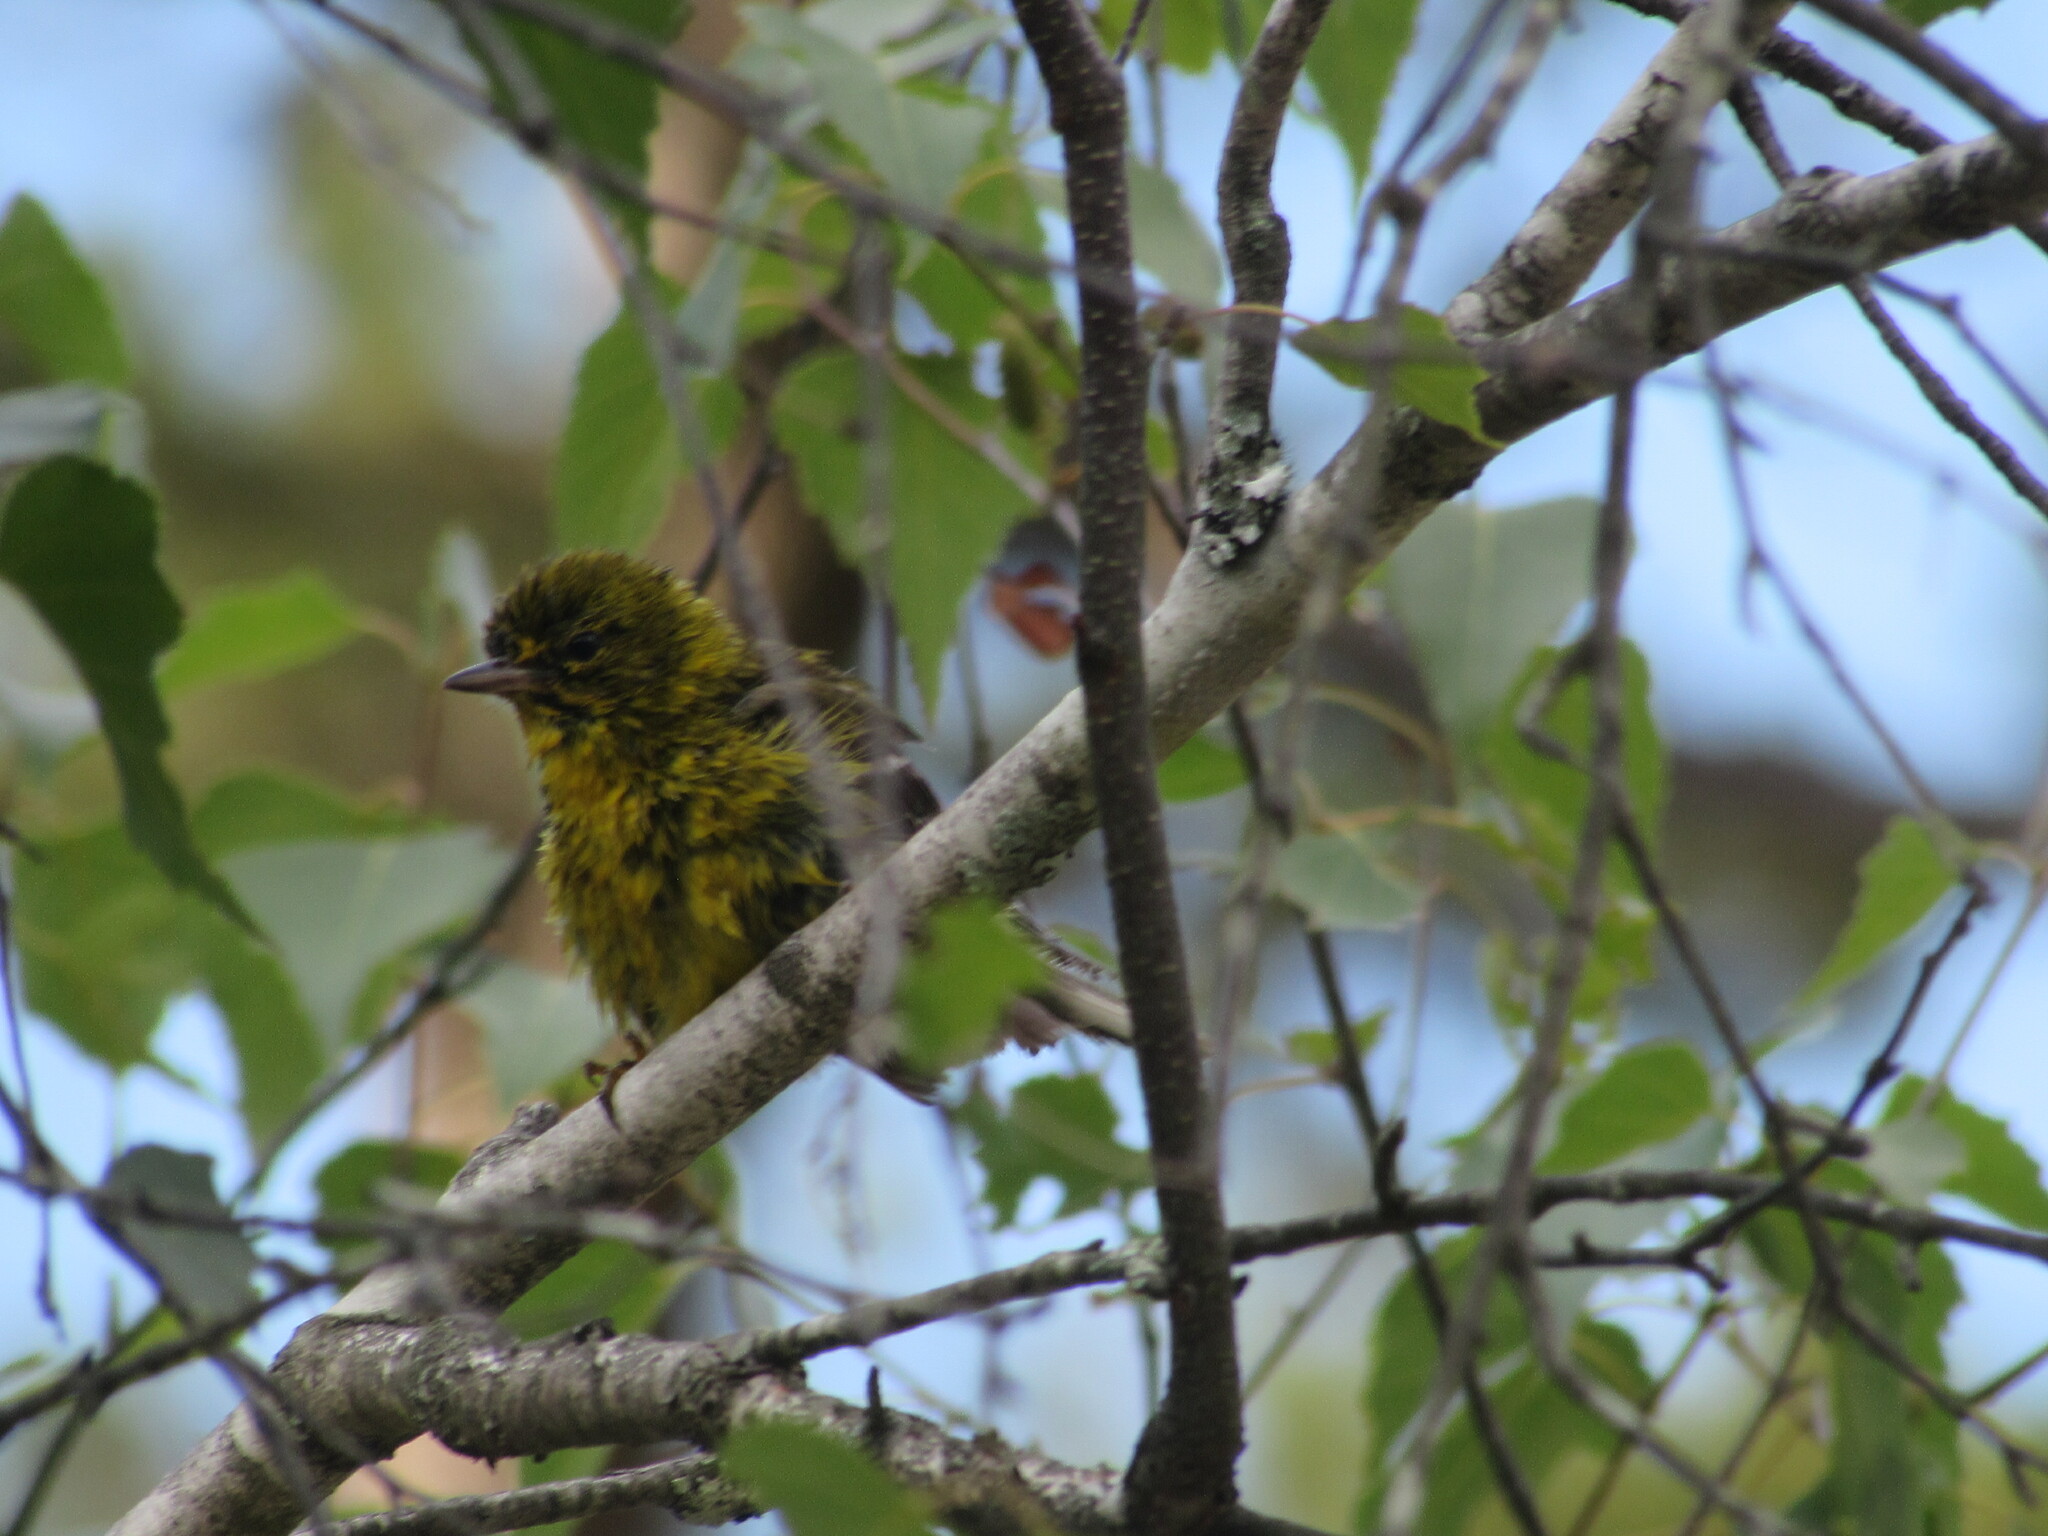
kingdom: Animalia
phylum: Chordata
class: Aves
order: Passeriformes
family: Parulidae
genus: Setophaga
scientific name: Setophaga pinus
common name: Pine warbler
